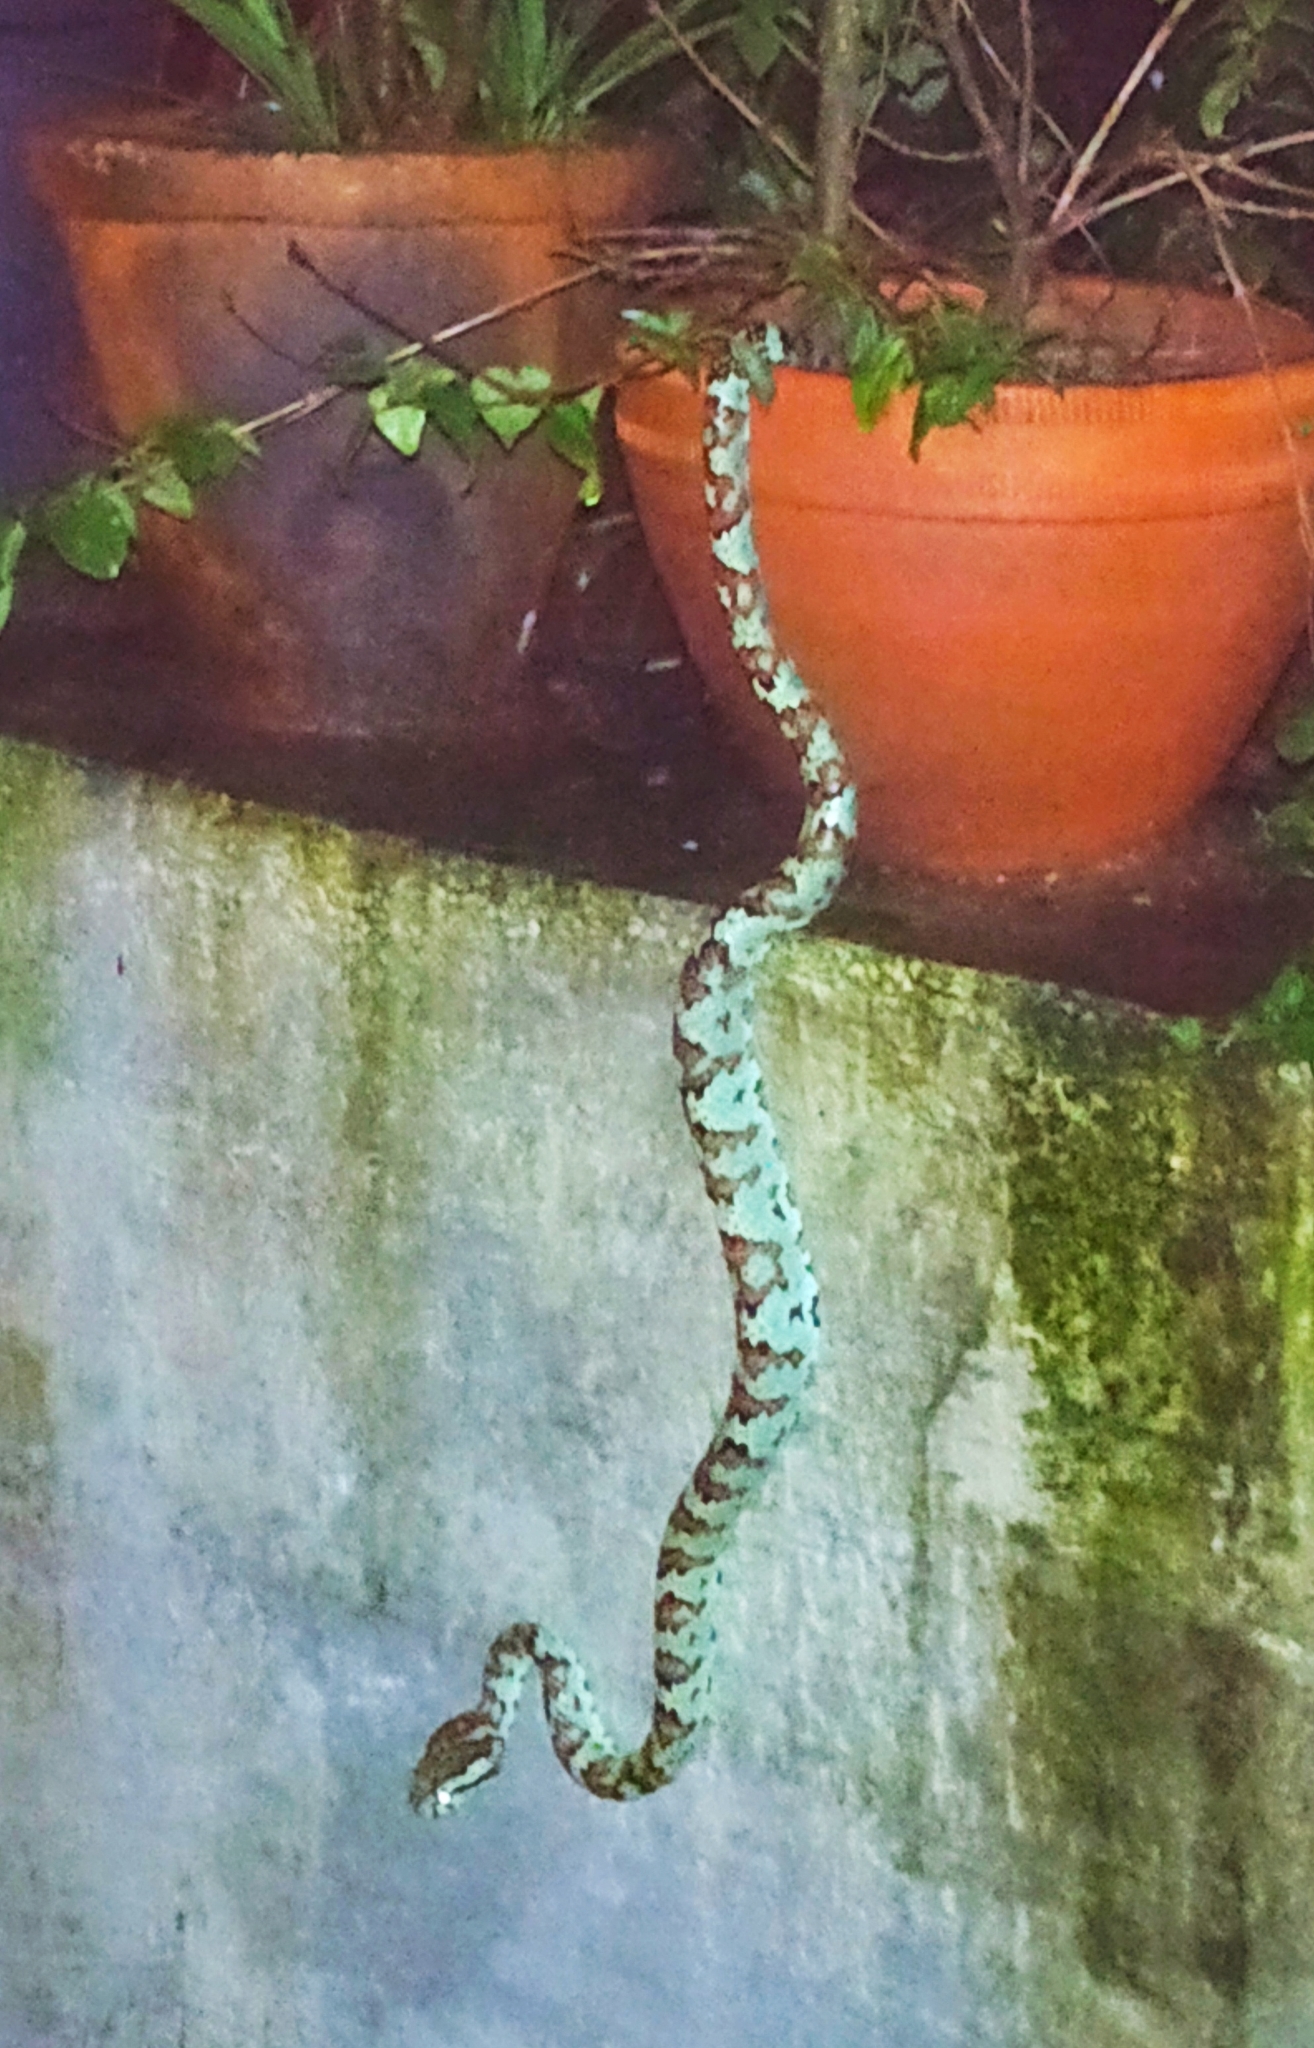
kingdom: Animalia
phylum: Chordata
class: Squamata
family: Viperidae
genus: Craspedocephalus
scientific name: Craspedocephalus malabaricus
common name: Malabarian pit viper
